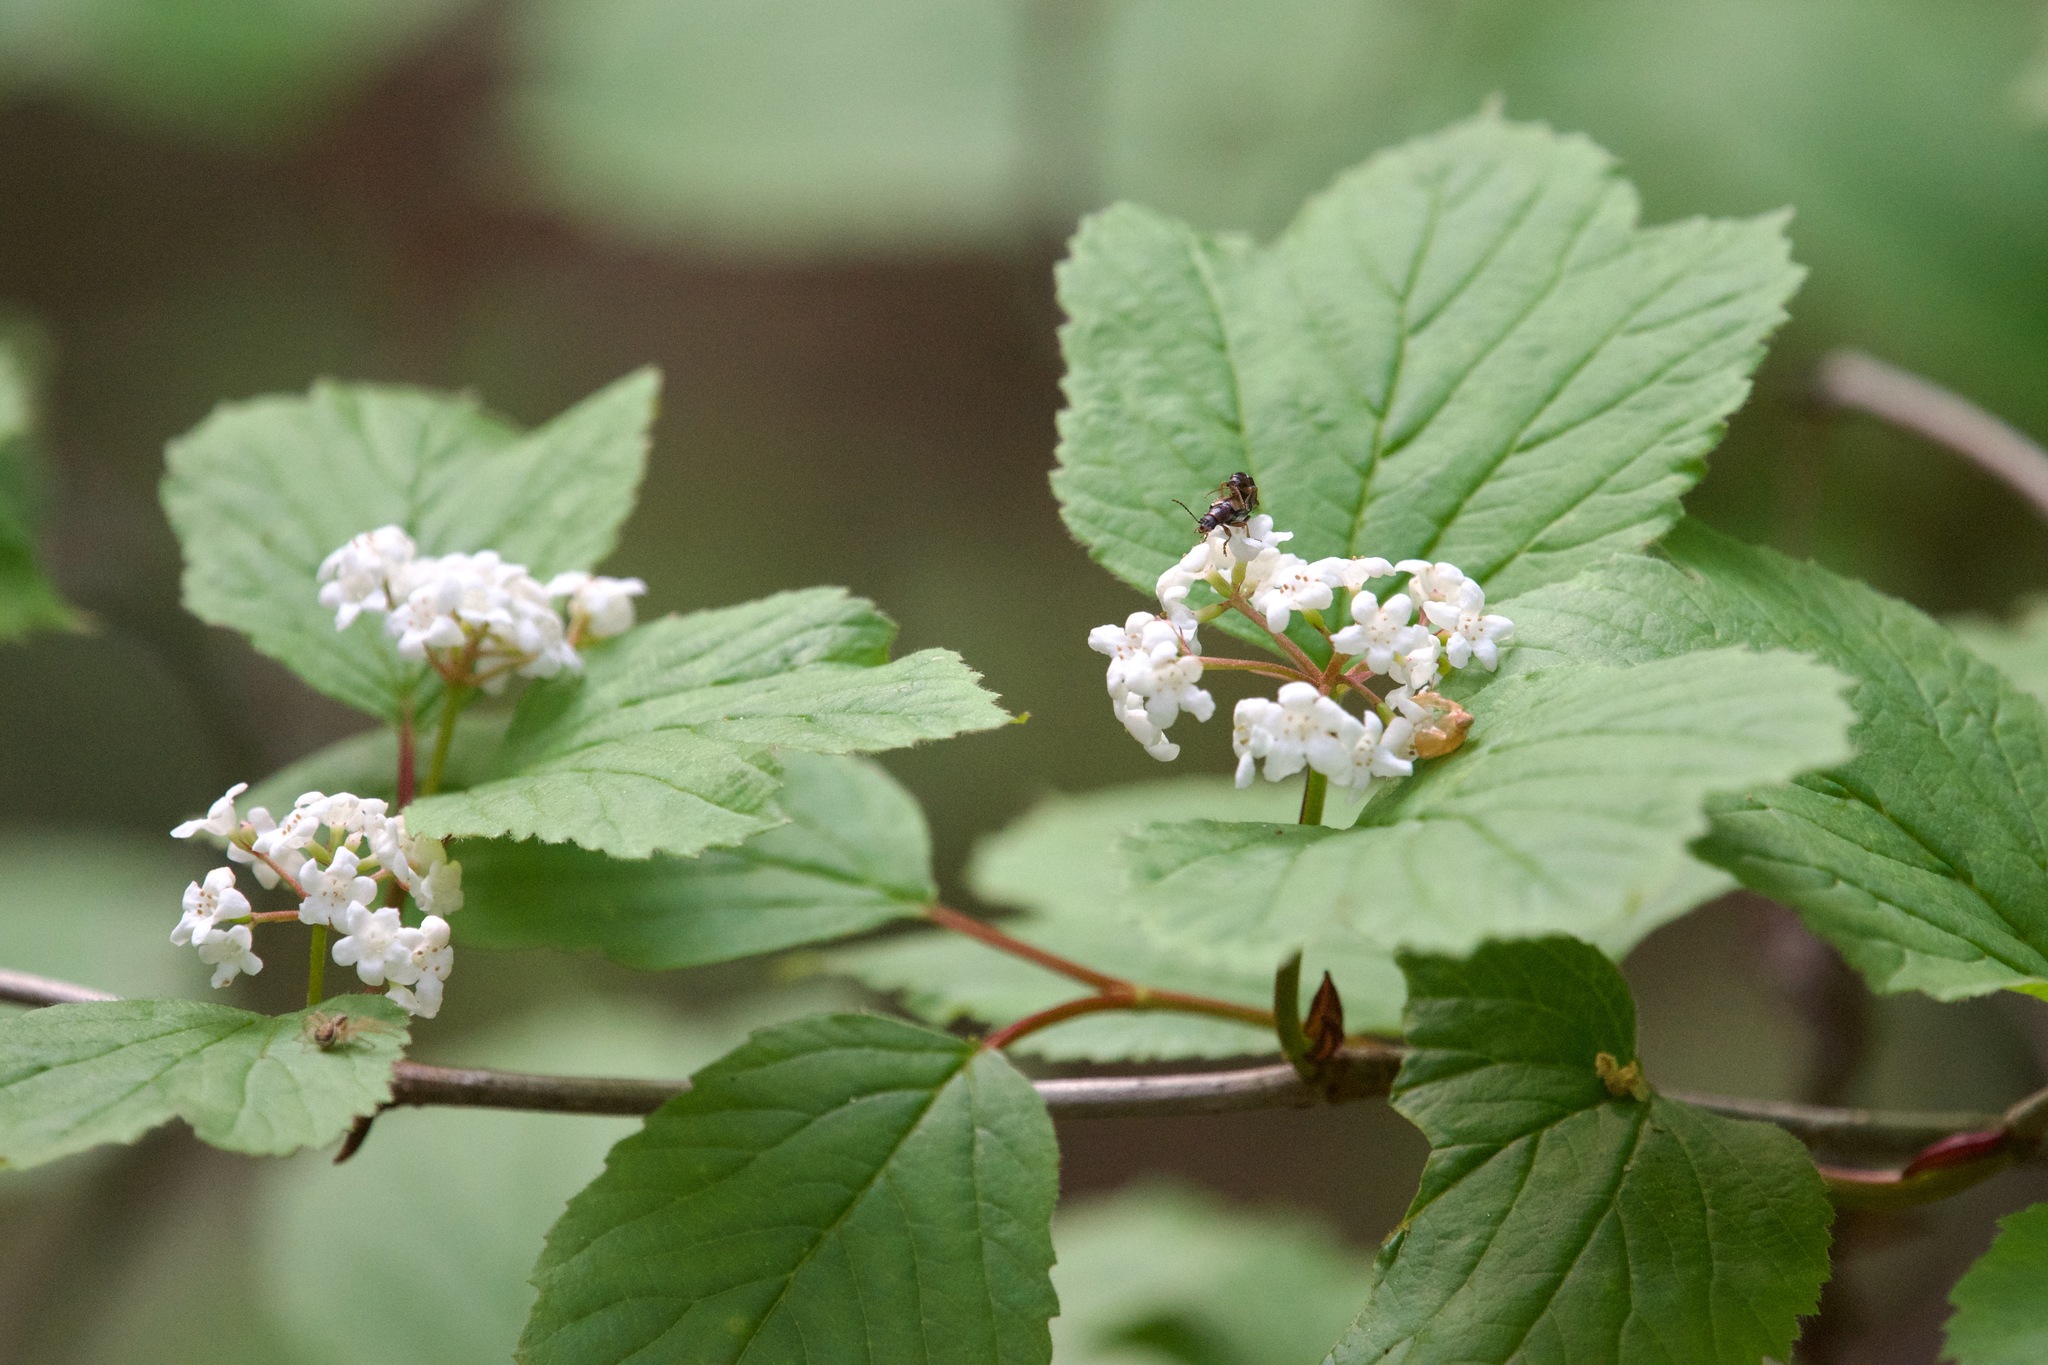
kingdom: Plantae
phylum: Tracheophyta
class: Magnoliopsida
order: Dipsacales
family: Viburnaceae
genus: Viburnum
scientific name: Viburnum edule
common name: Mooseberry
